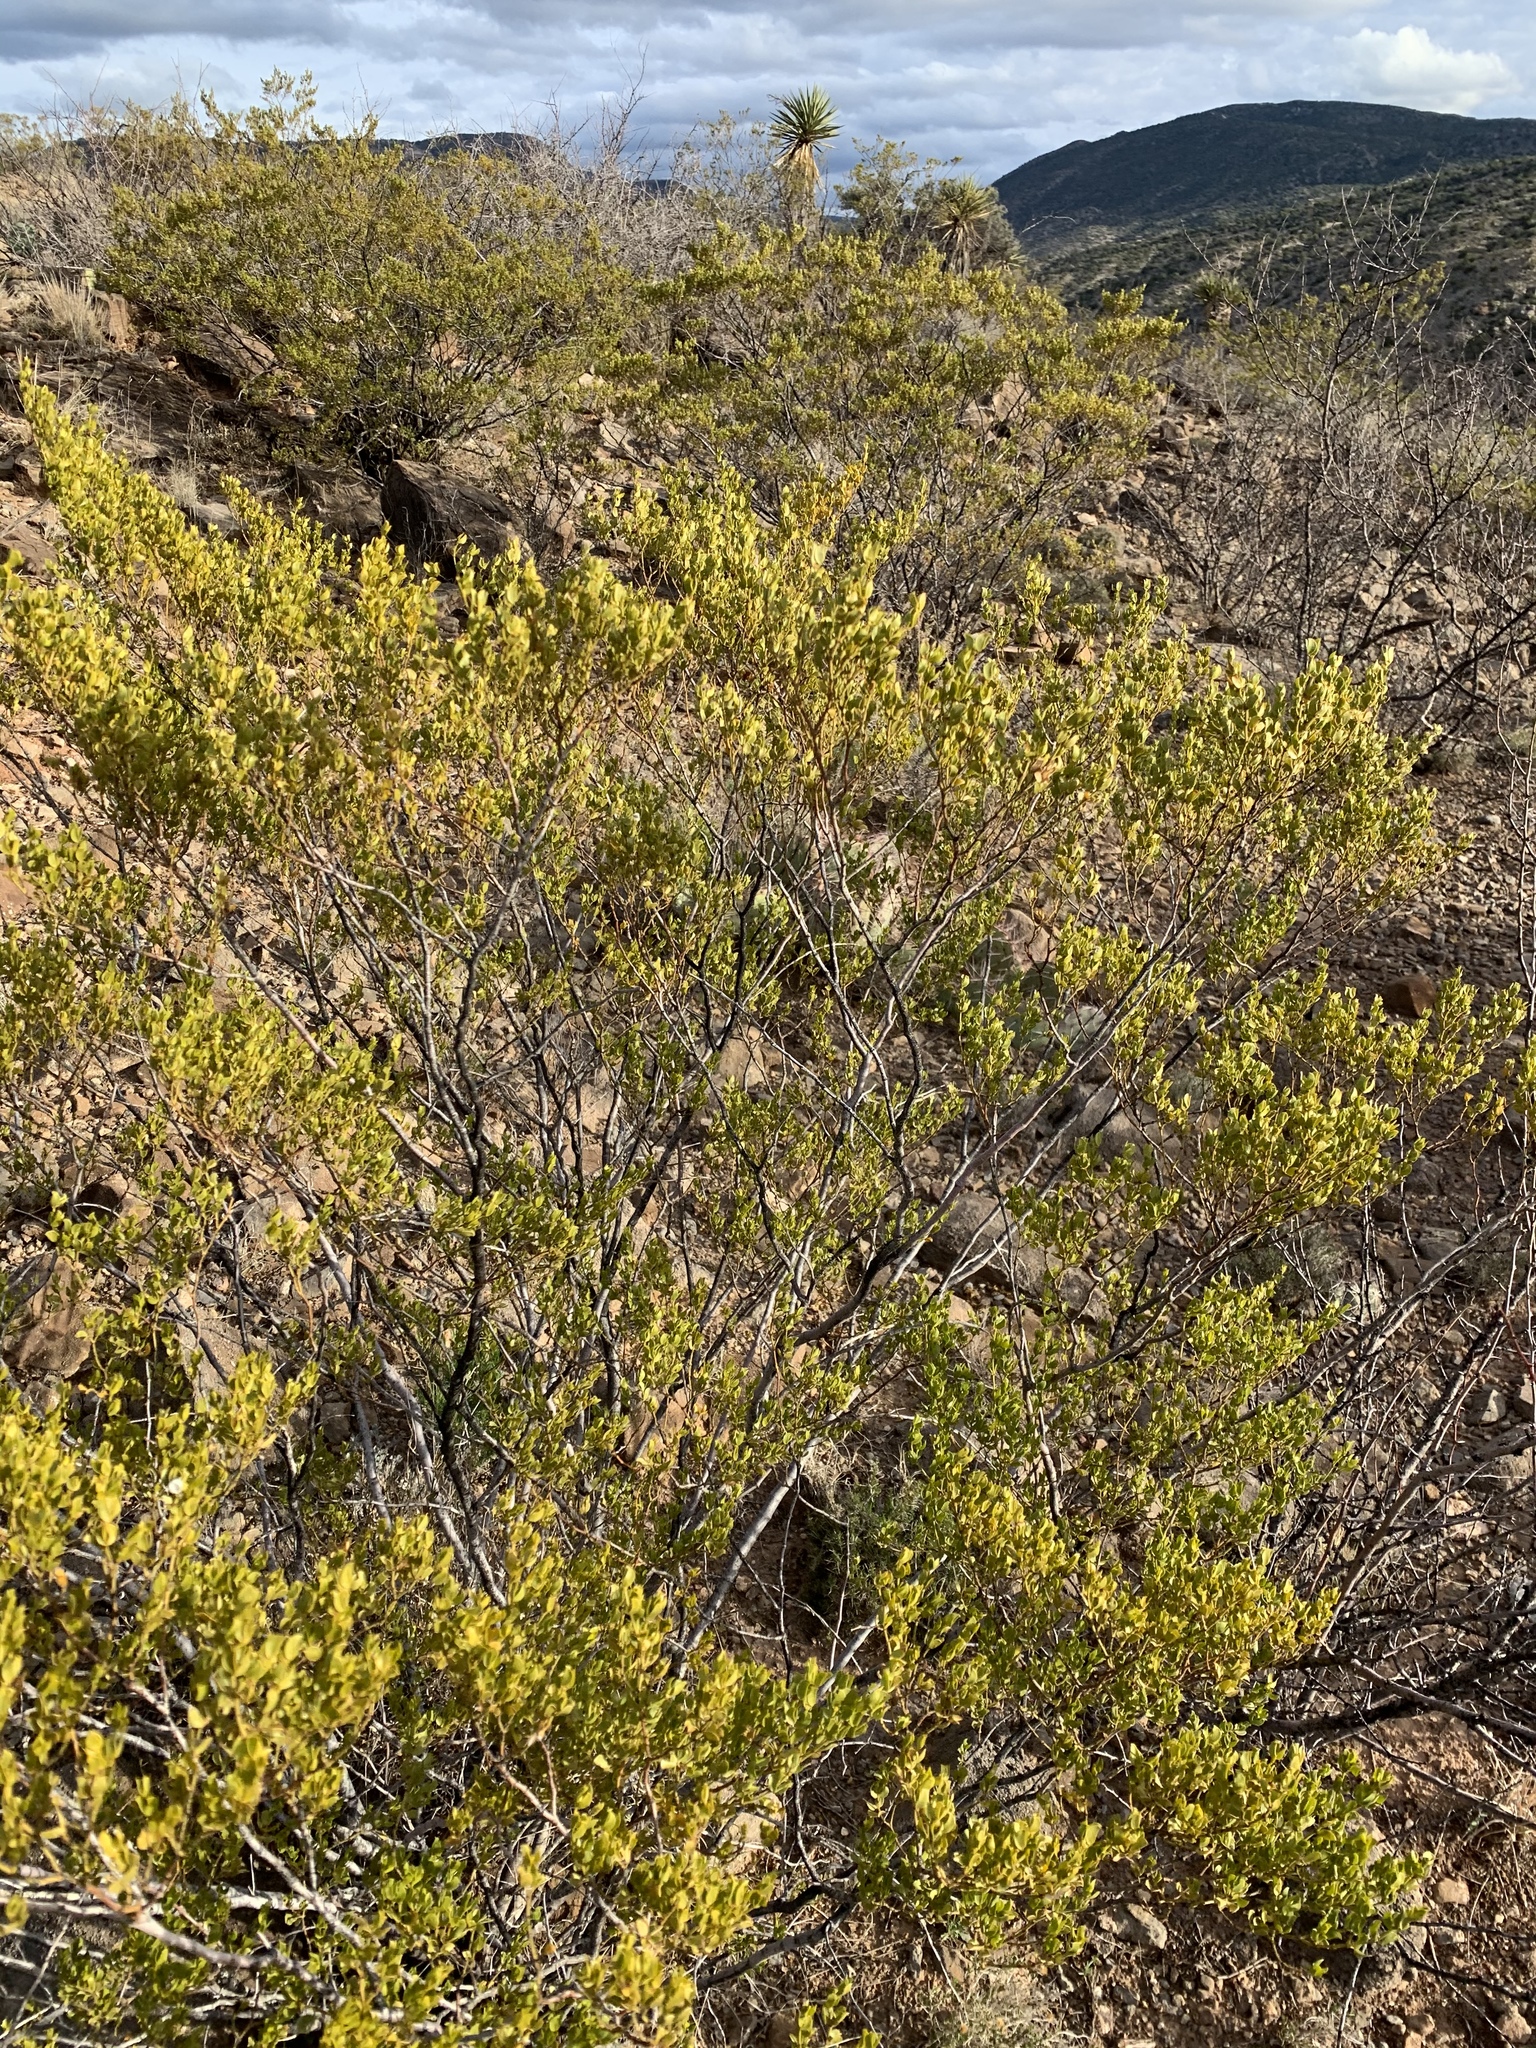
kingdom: Plantae
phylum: Tracheophyta
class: Magnoliopsida
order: Zygophyllales
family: Zygophyllaceae
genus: Larrea
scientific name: Larrea tridentata
